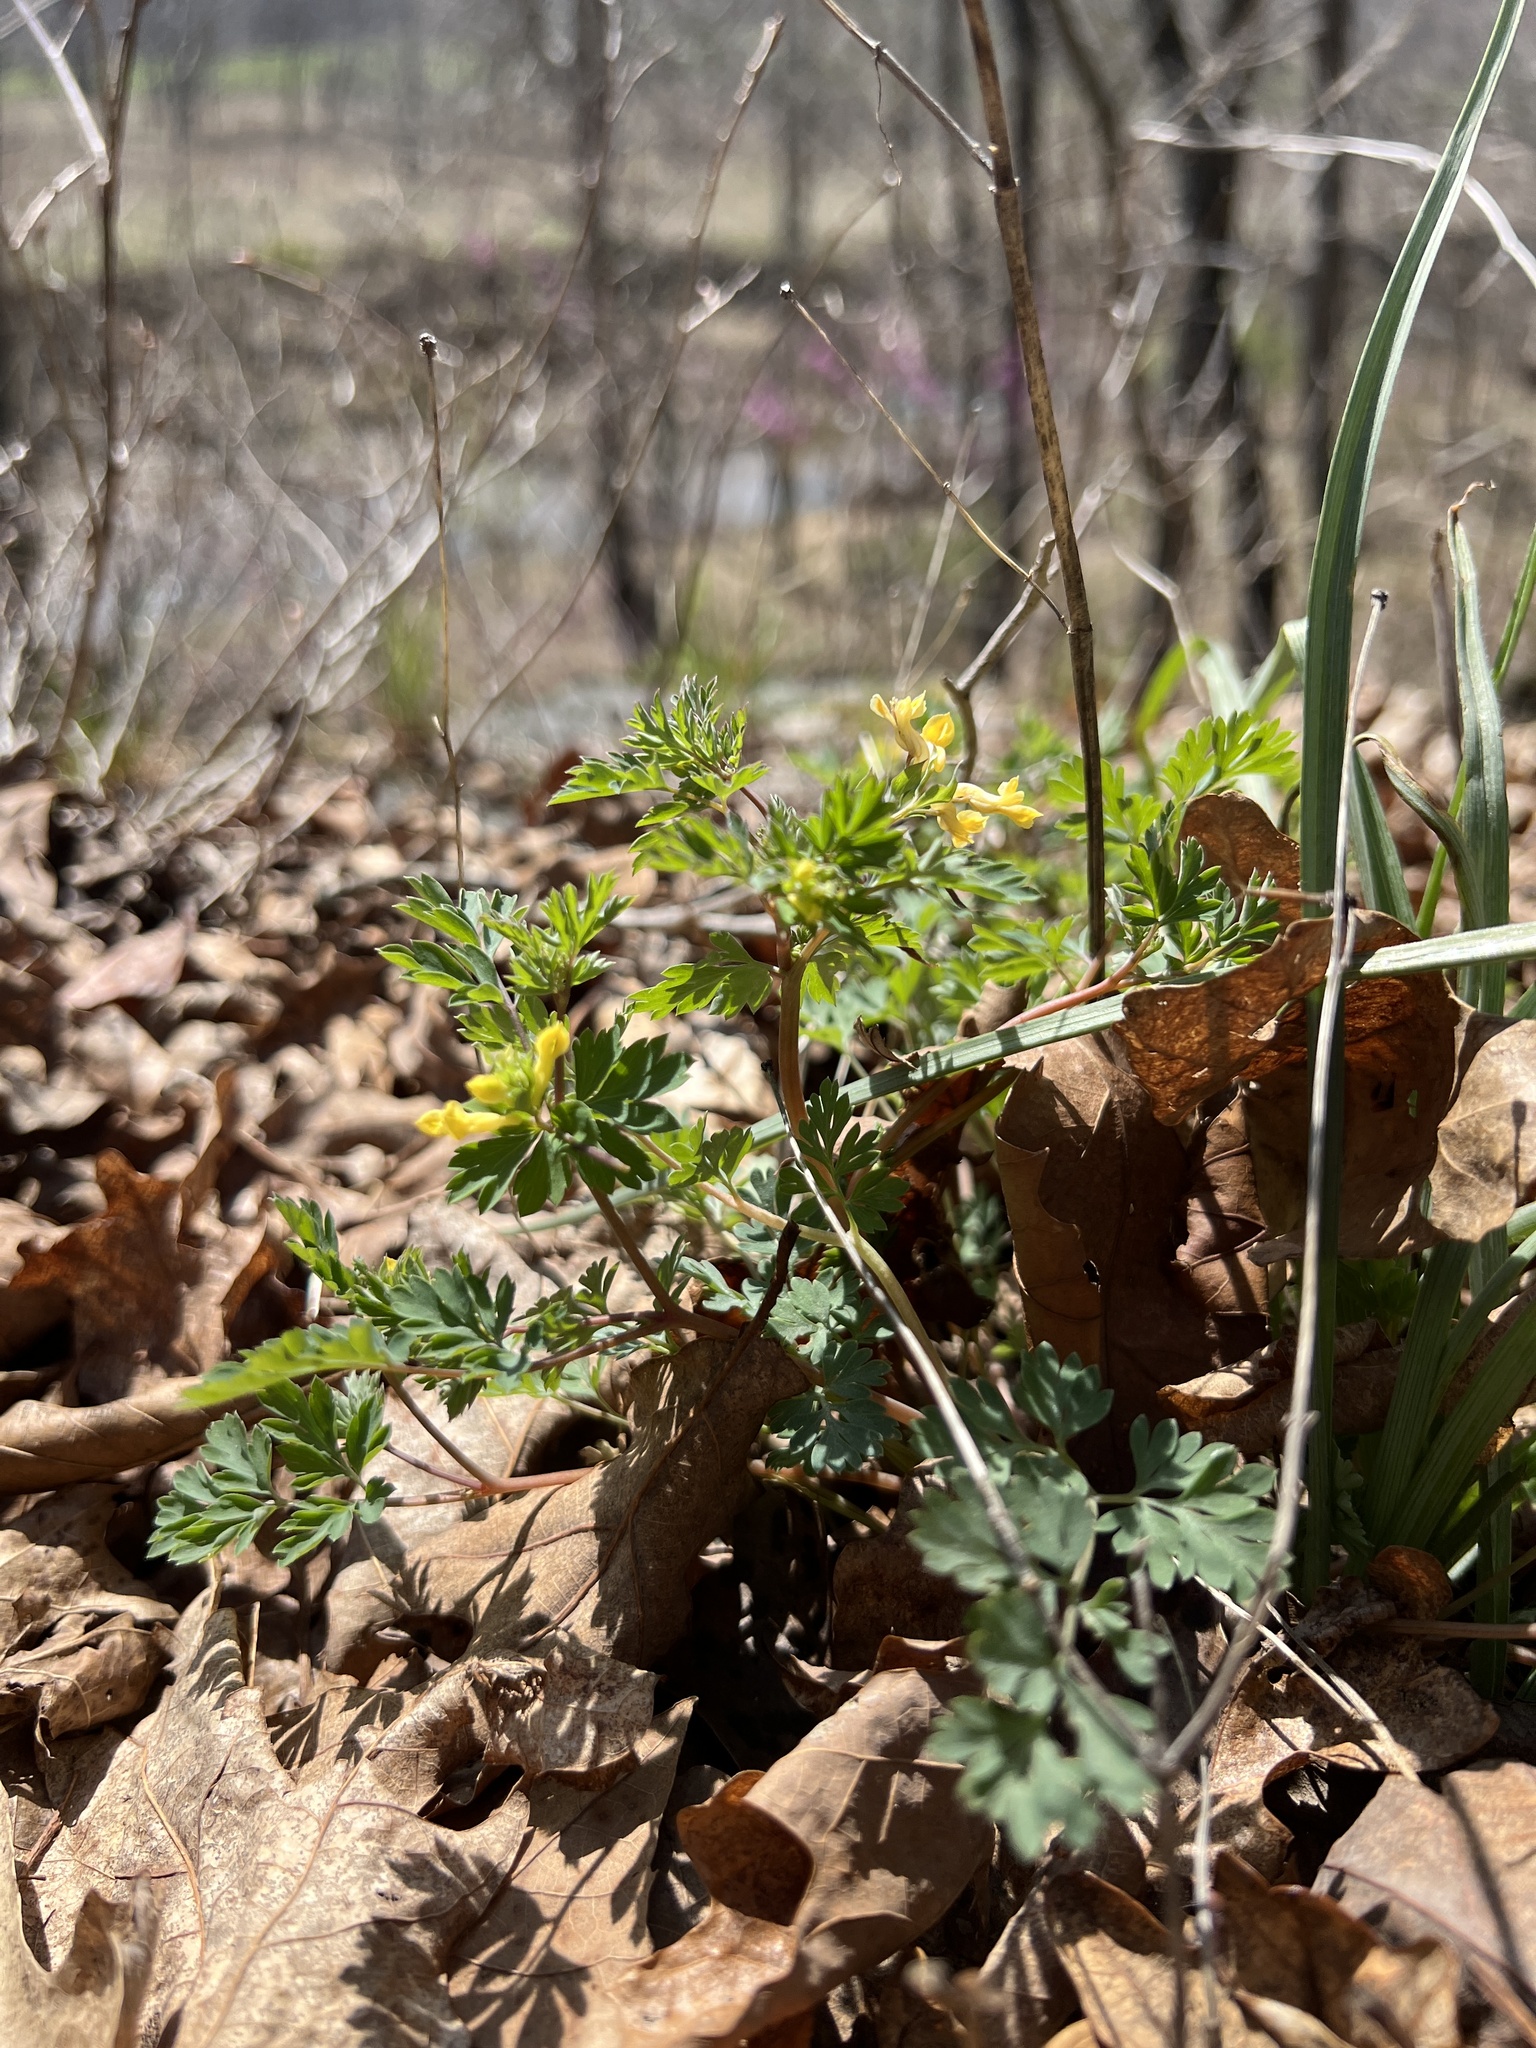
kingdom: Plantae
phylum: Tracheophyta
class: Magnoliopsida
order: Ranunculales
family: Papaveraceae
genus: Corydalis
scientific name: Corydalis flavula
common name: Yellow corydalis
